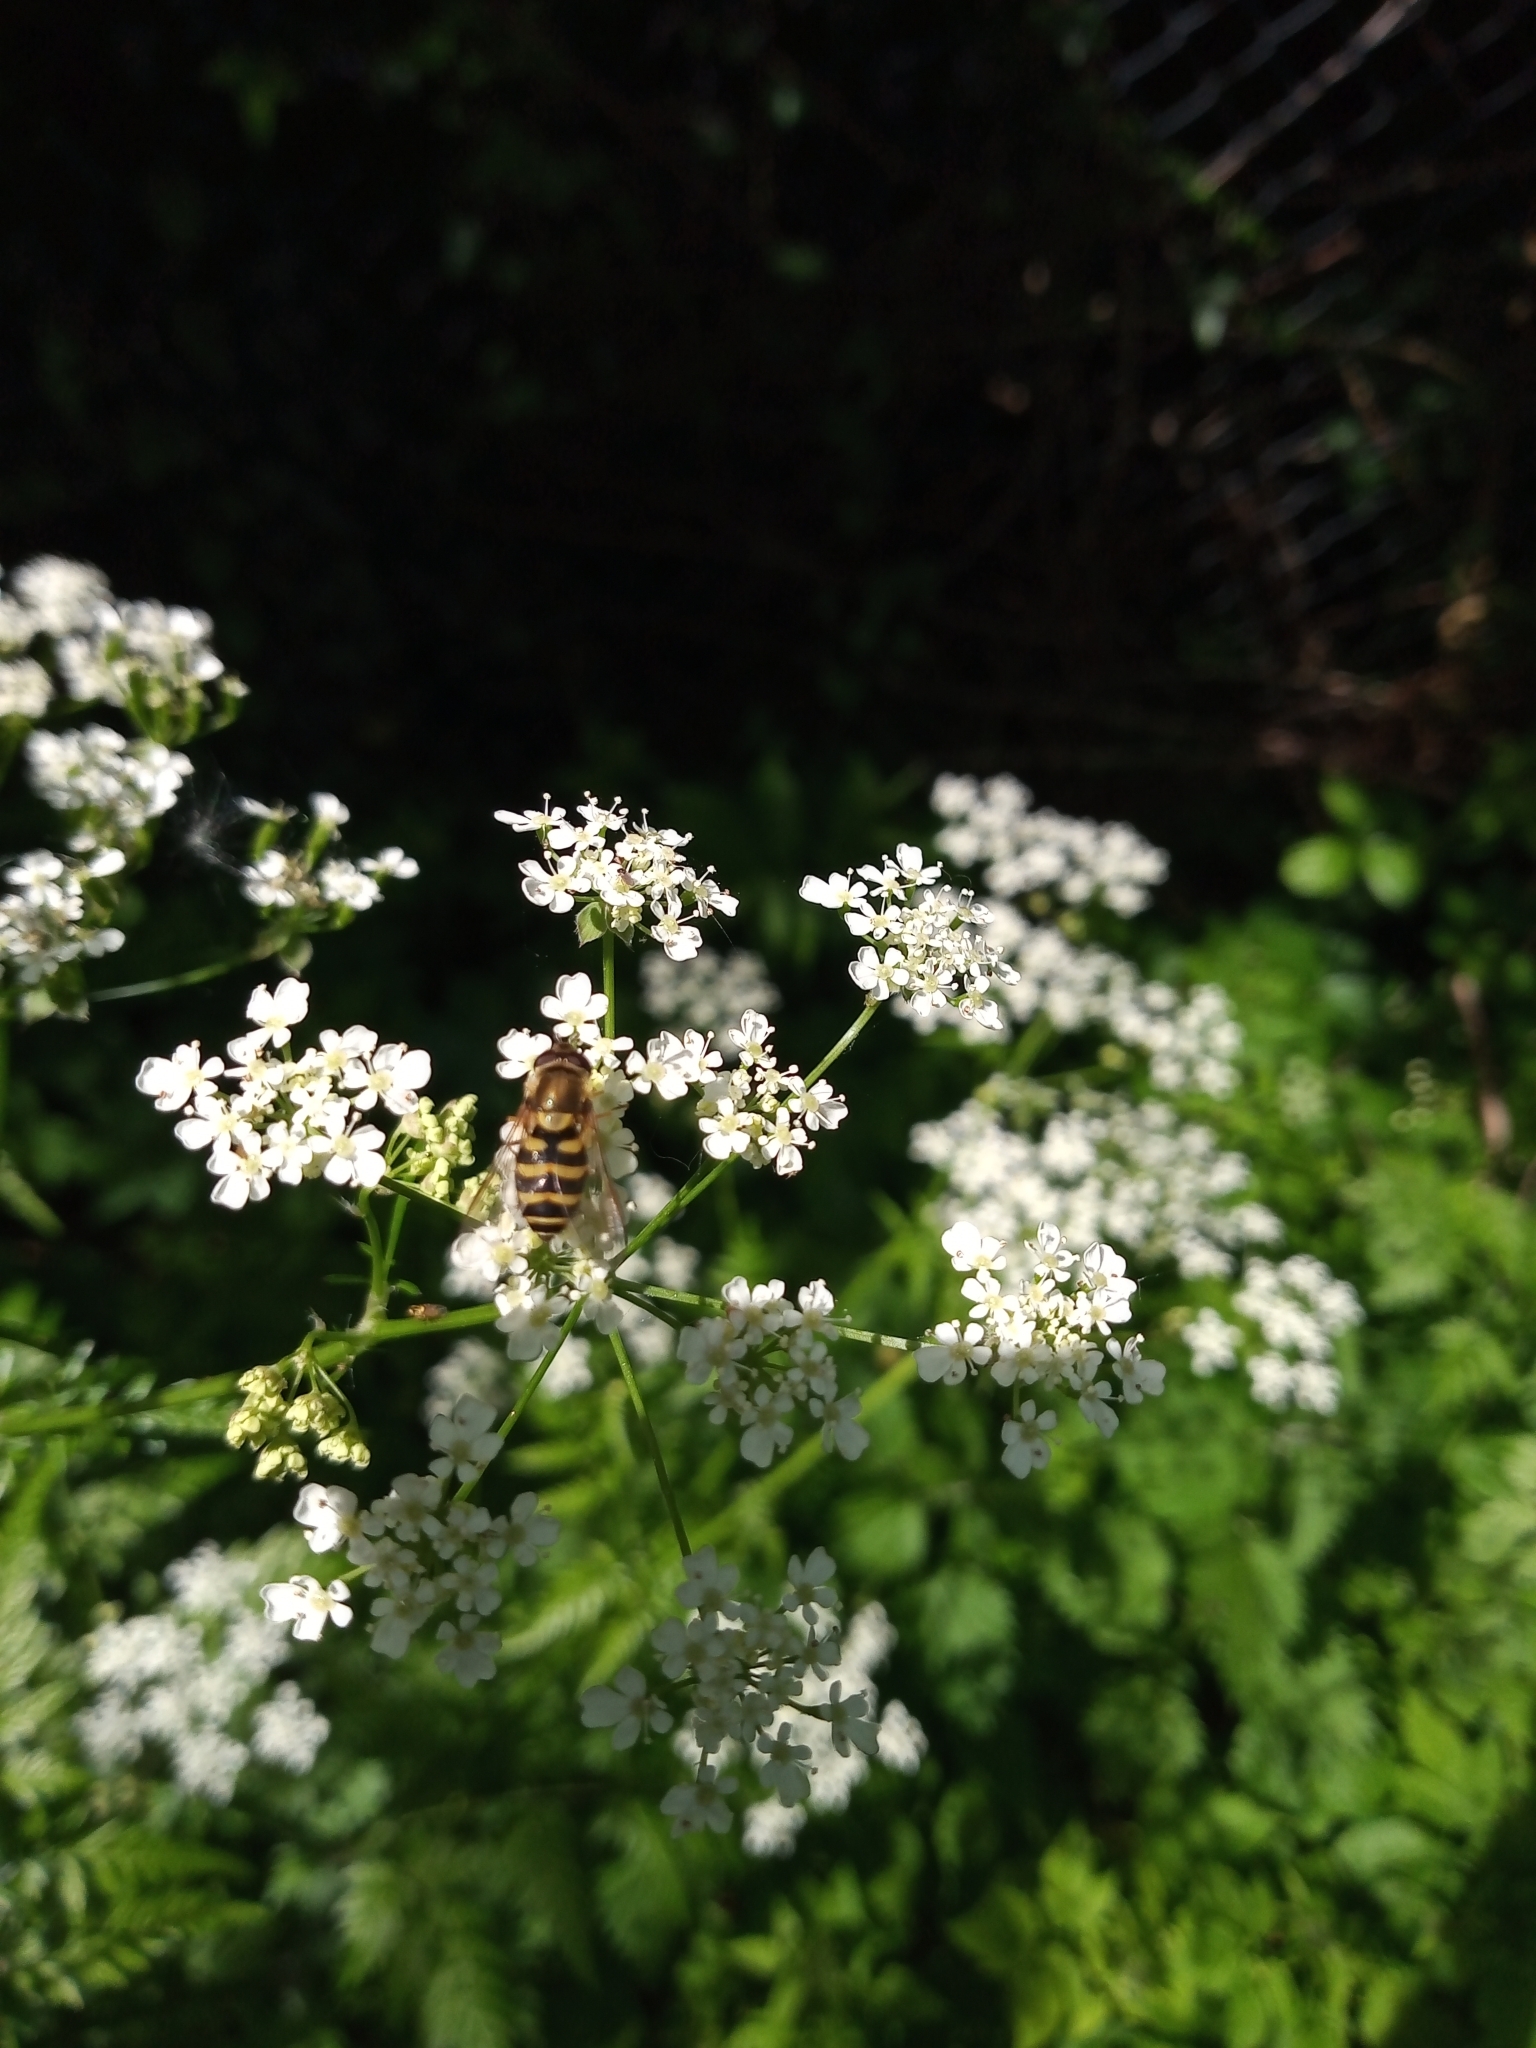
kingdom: Animalia
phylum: Arthropoda
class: Insecta
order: Diptera
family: Syrphidae
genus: Syrphus
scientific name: Syrphus
